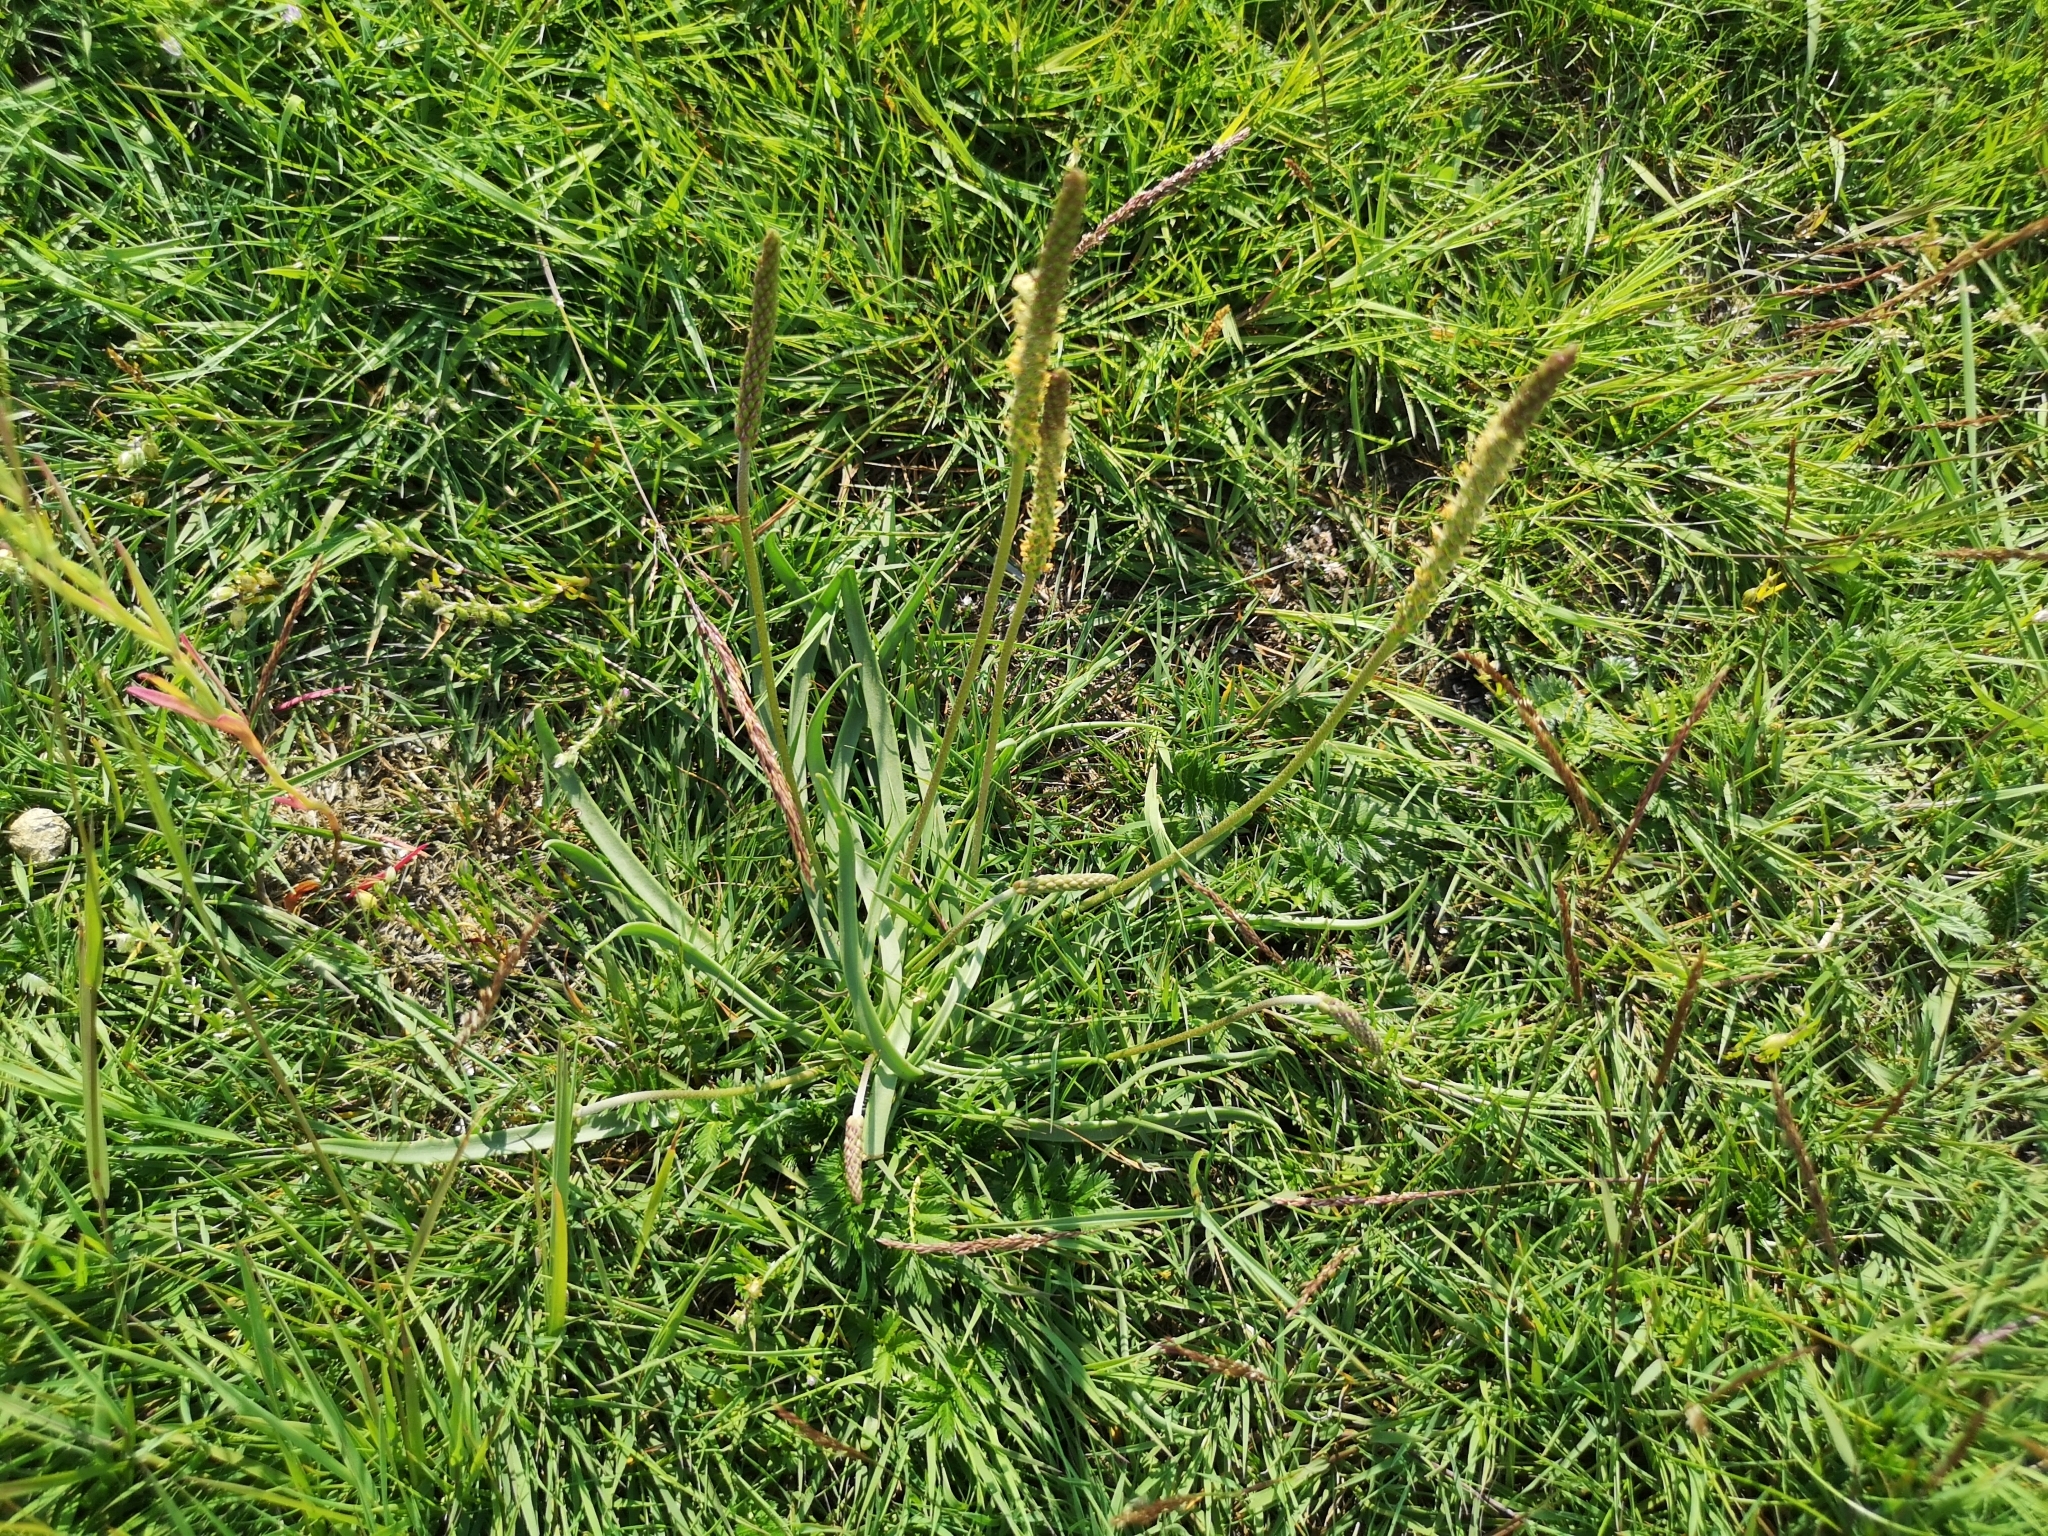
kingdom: Plantae
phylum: Tracheophyta
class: Magnoliopsida
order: Lamiales
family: Plantaginaceae
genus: Plantago
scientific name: Plantago maritima
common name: Sea plantain
